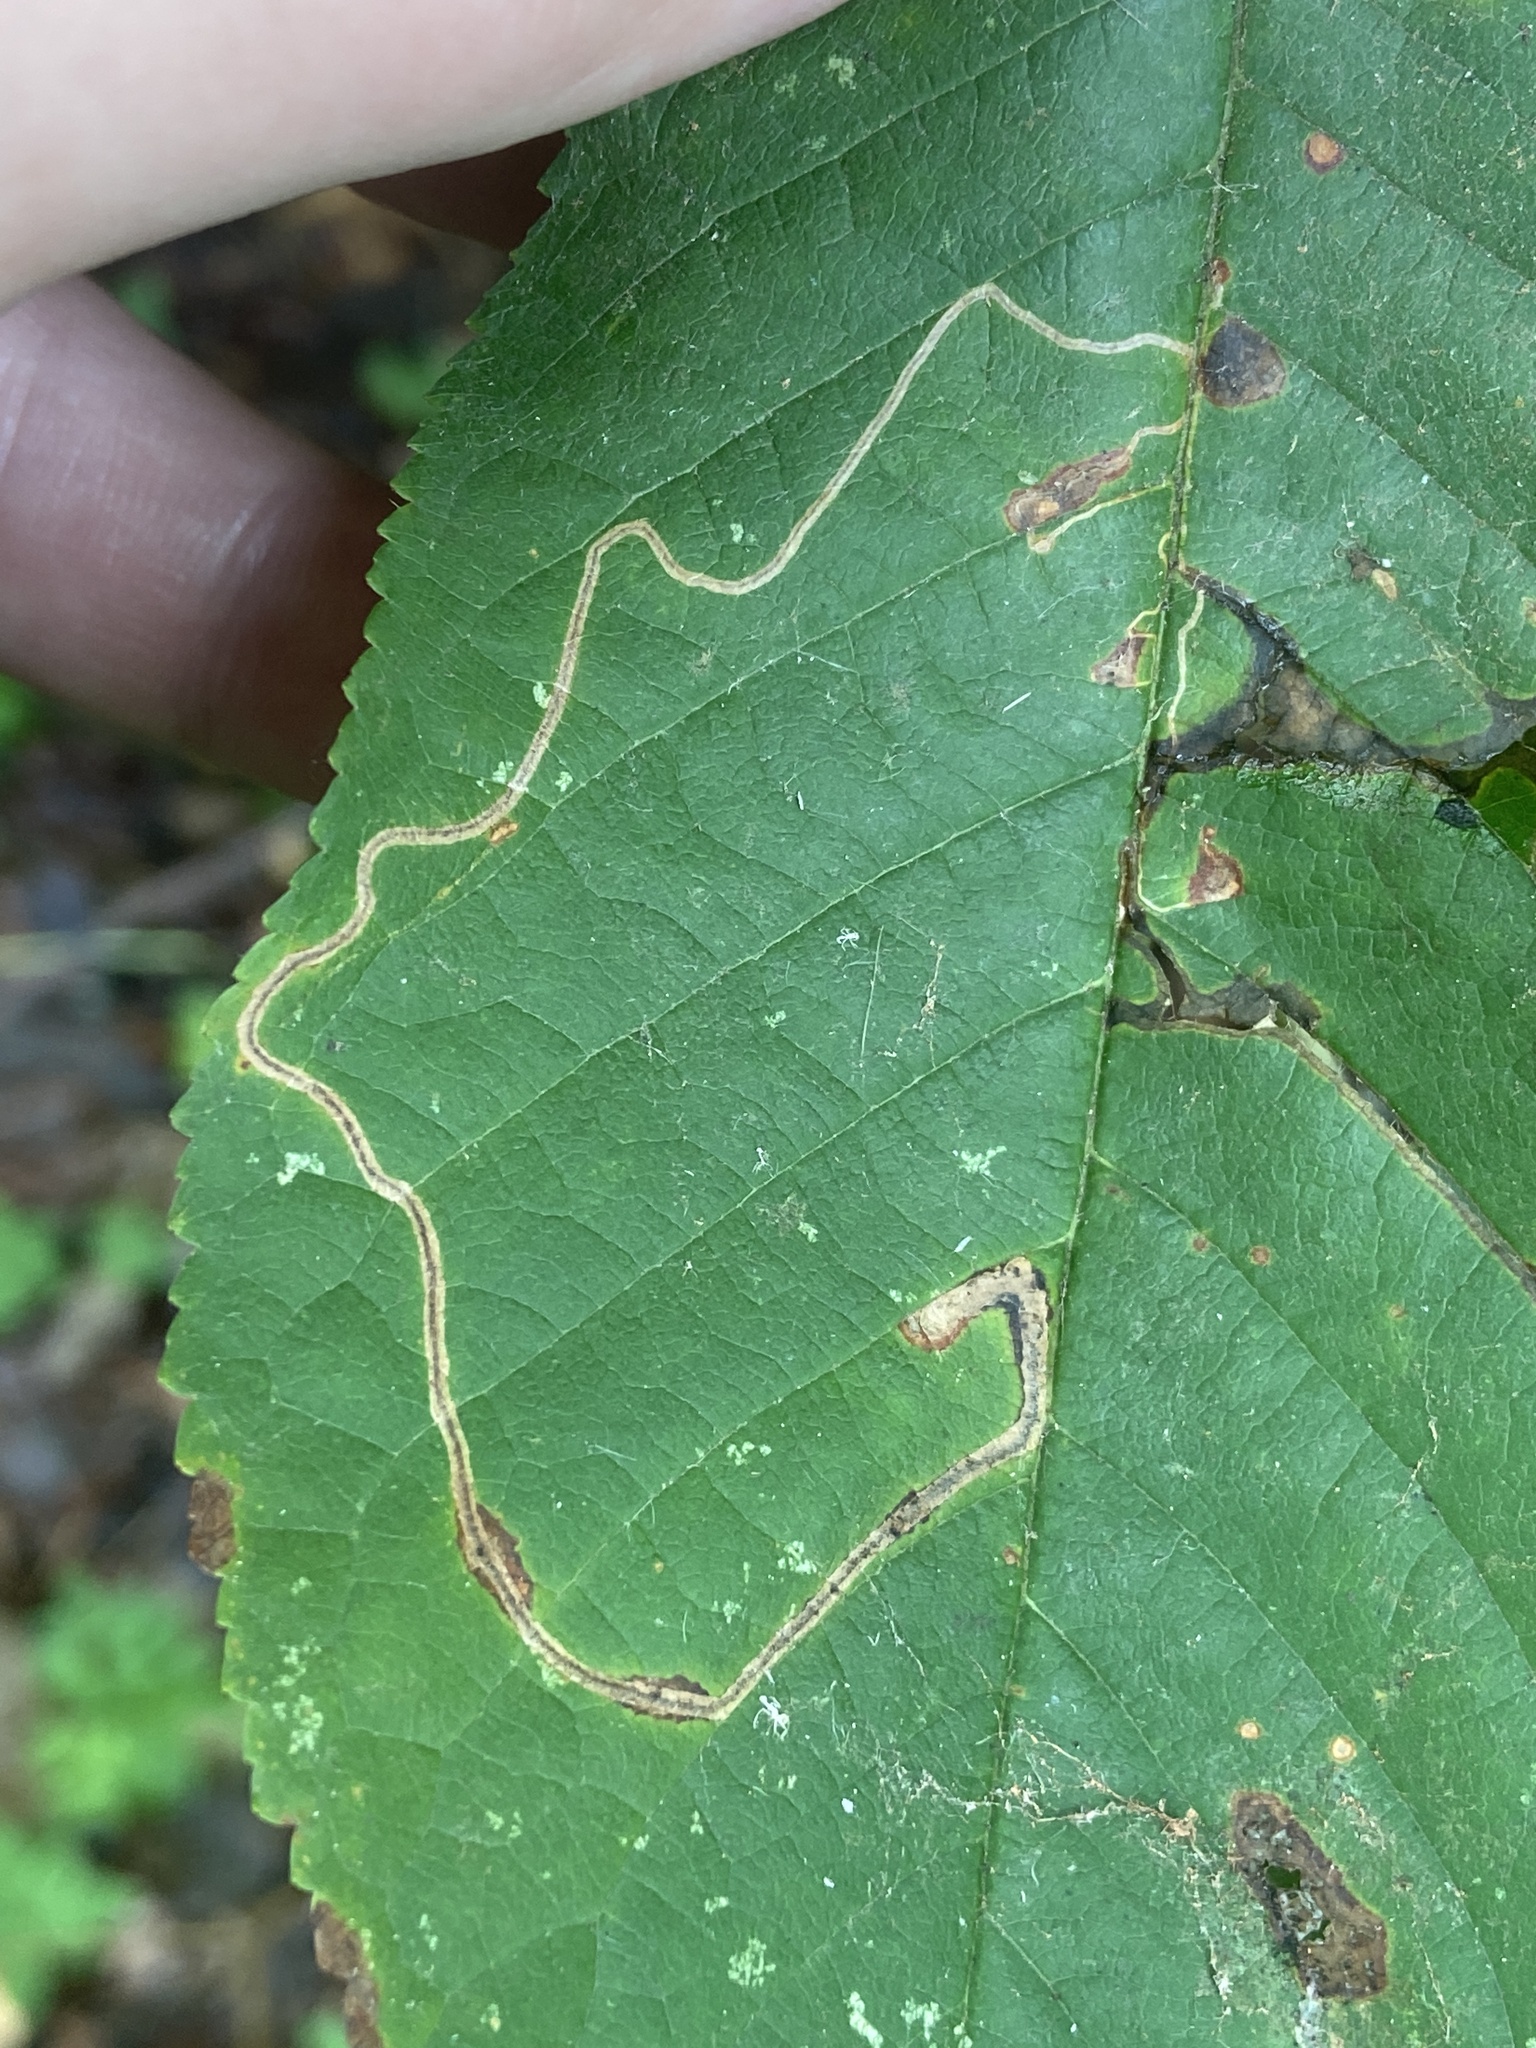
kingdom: Animalia
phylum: Arthropoda
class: Insecta
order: Lepidoptera
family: Lyonetiidae
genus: Lyonetia
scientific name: Lyonetia clerkella
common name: Apple leaf miner
